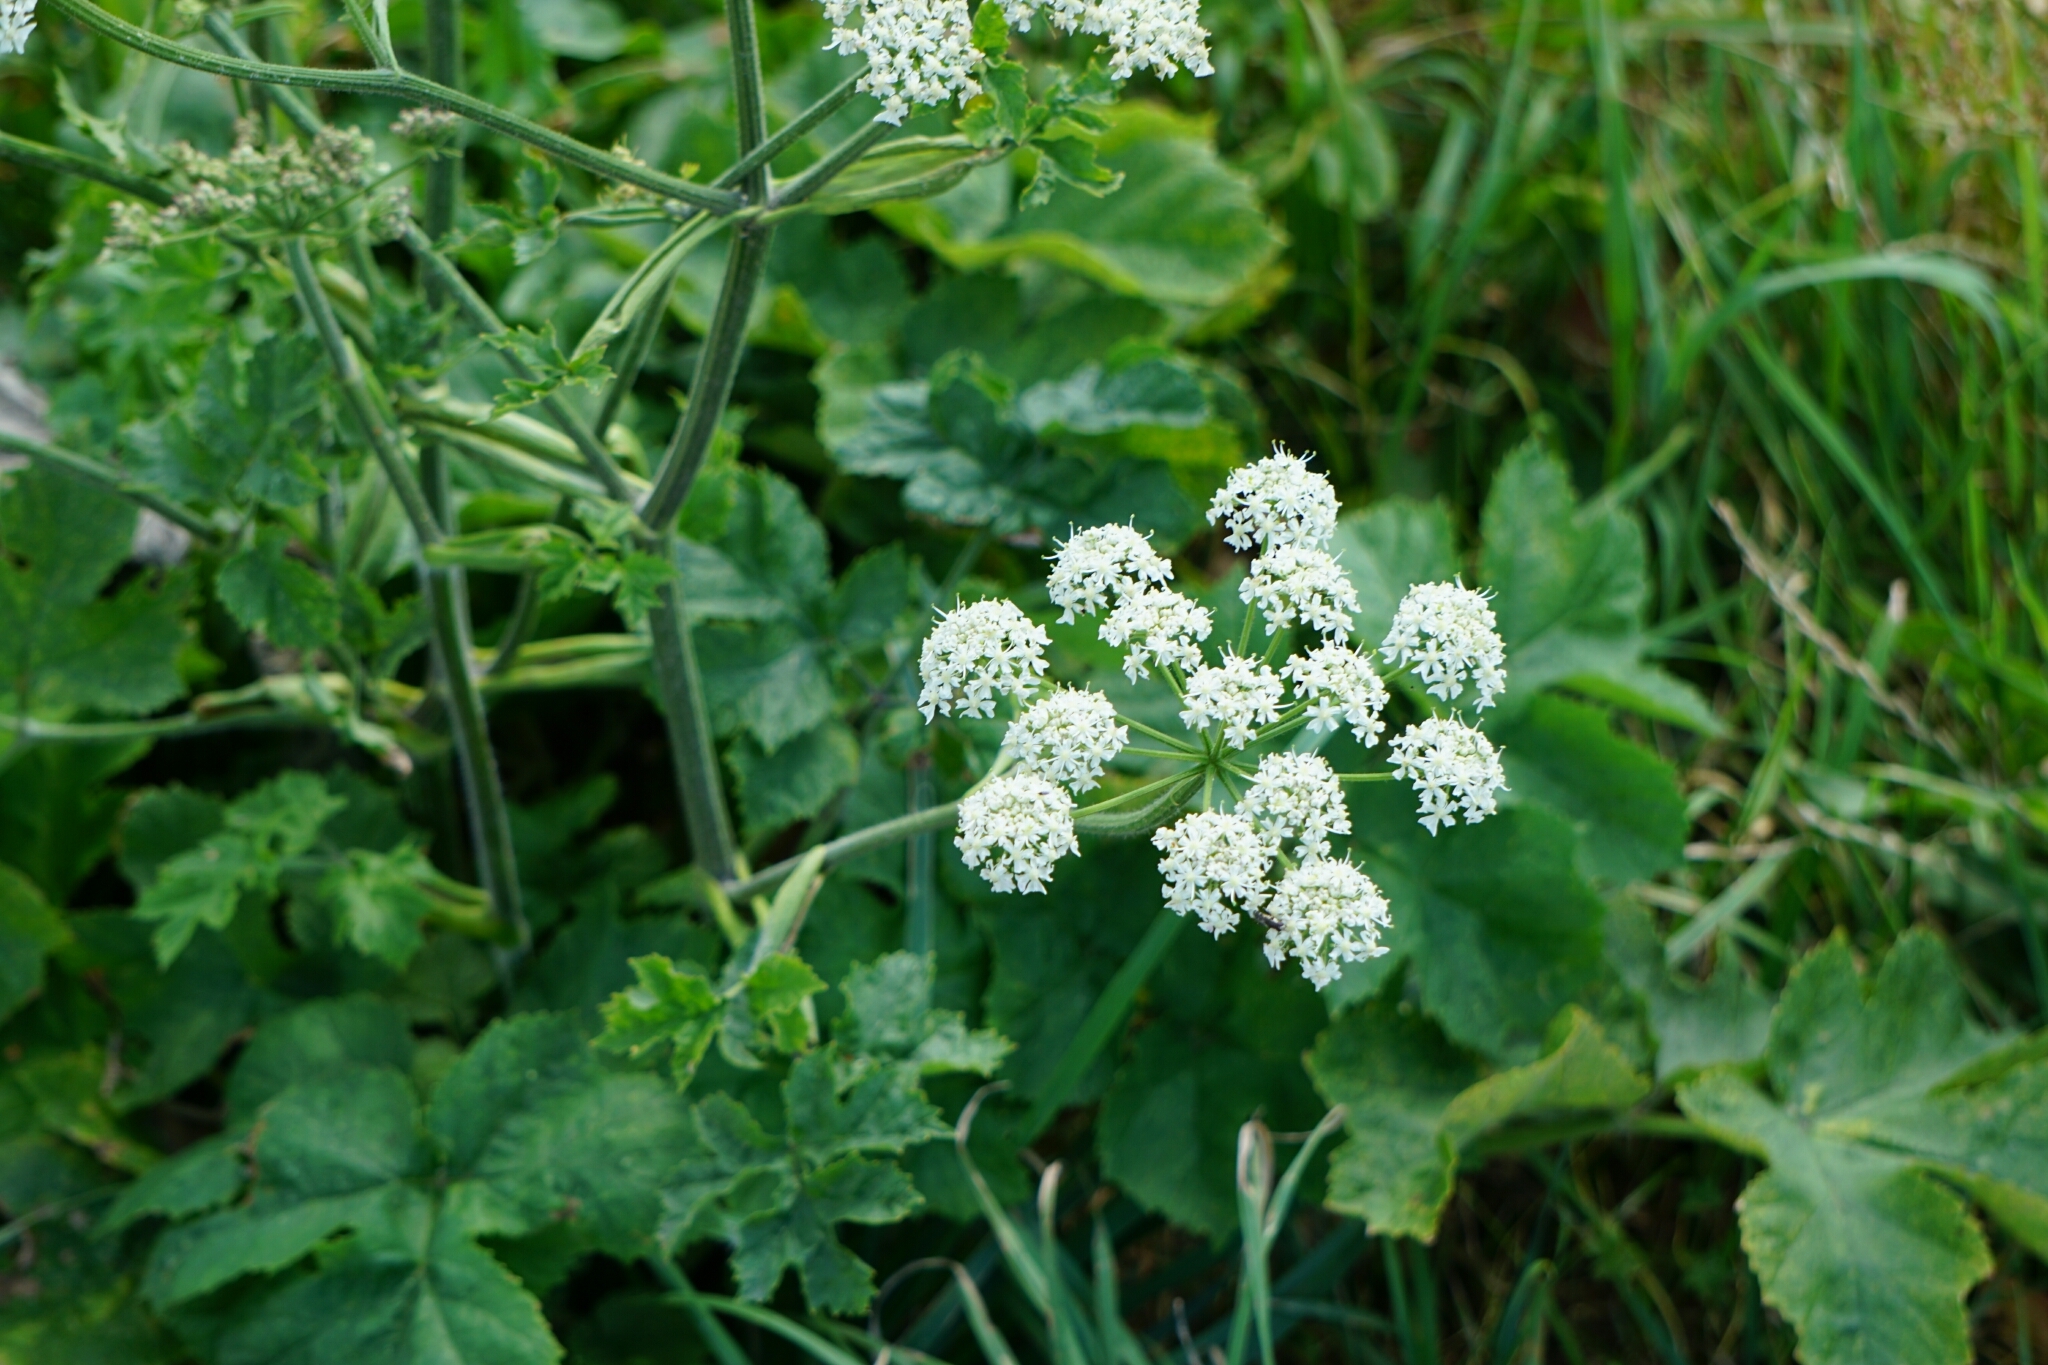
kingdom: Plantae
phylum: Tracheophyta
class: Magnoliopsida
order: Apiales
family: Apiaceae
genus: Heracleum
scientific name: Heracleum sphondylium
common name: Hogweed
